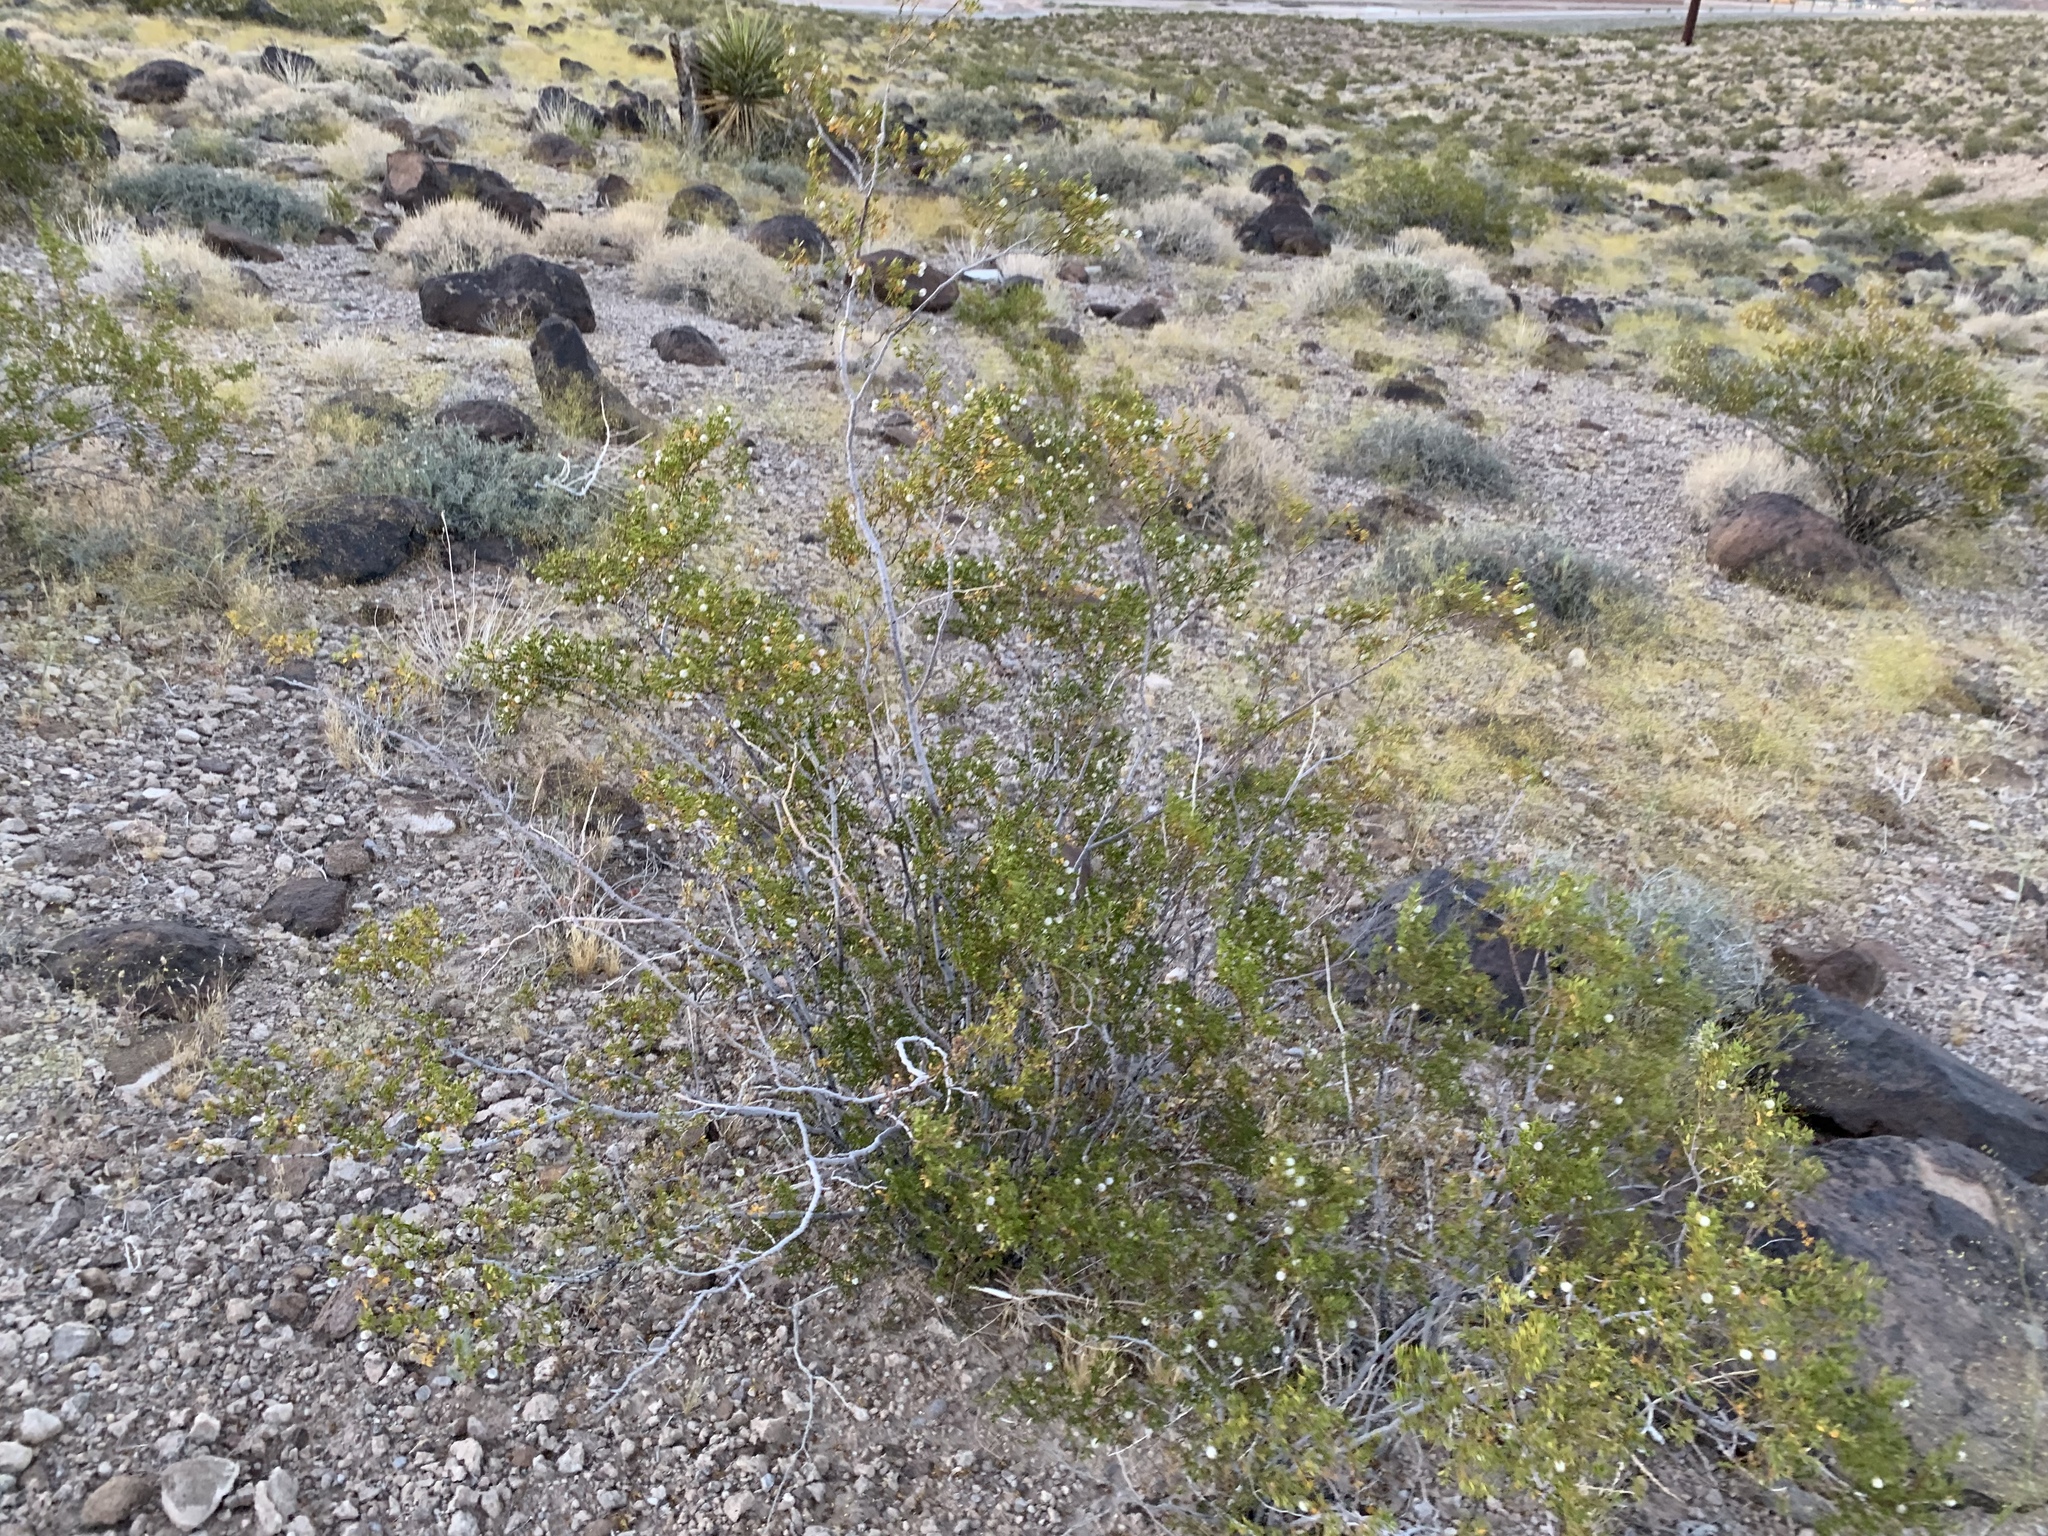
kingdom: Plantae
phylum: Tracheophyta
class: Magnoliopsida
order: Zygophyllales
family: Zygophyllaceae
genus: Larrea
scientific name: Larrea tridentata
